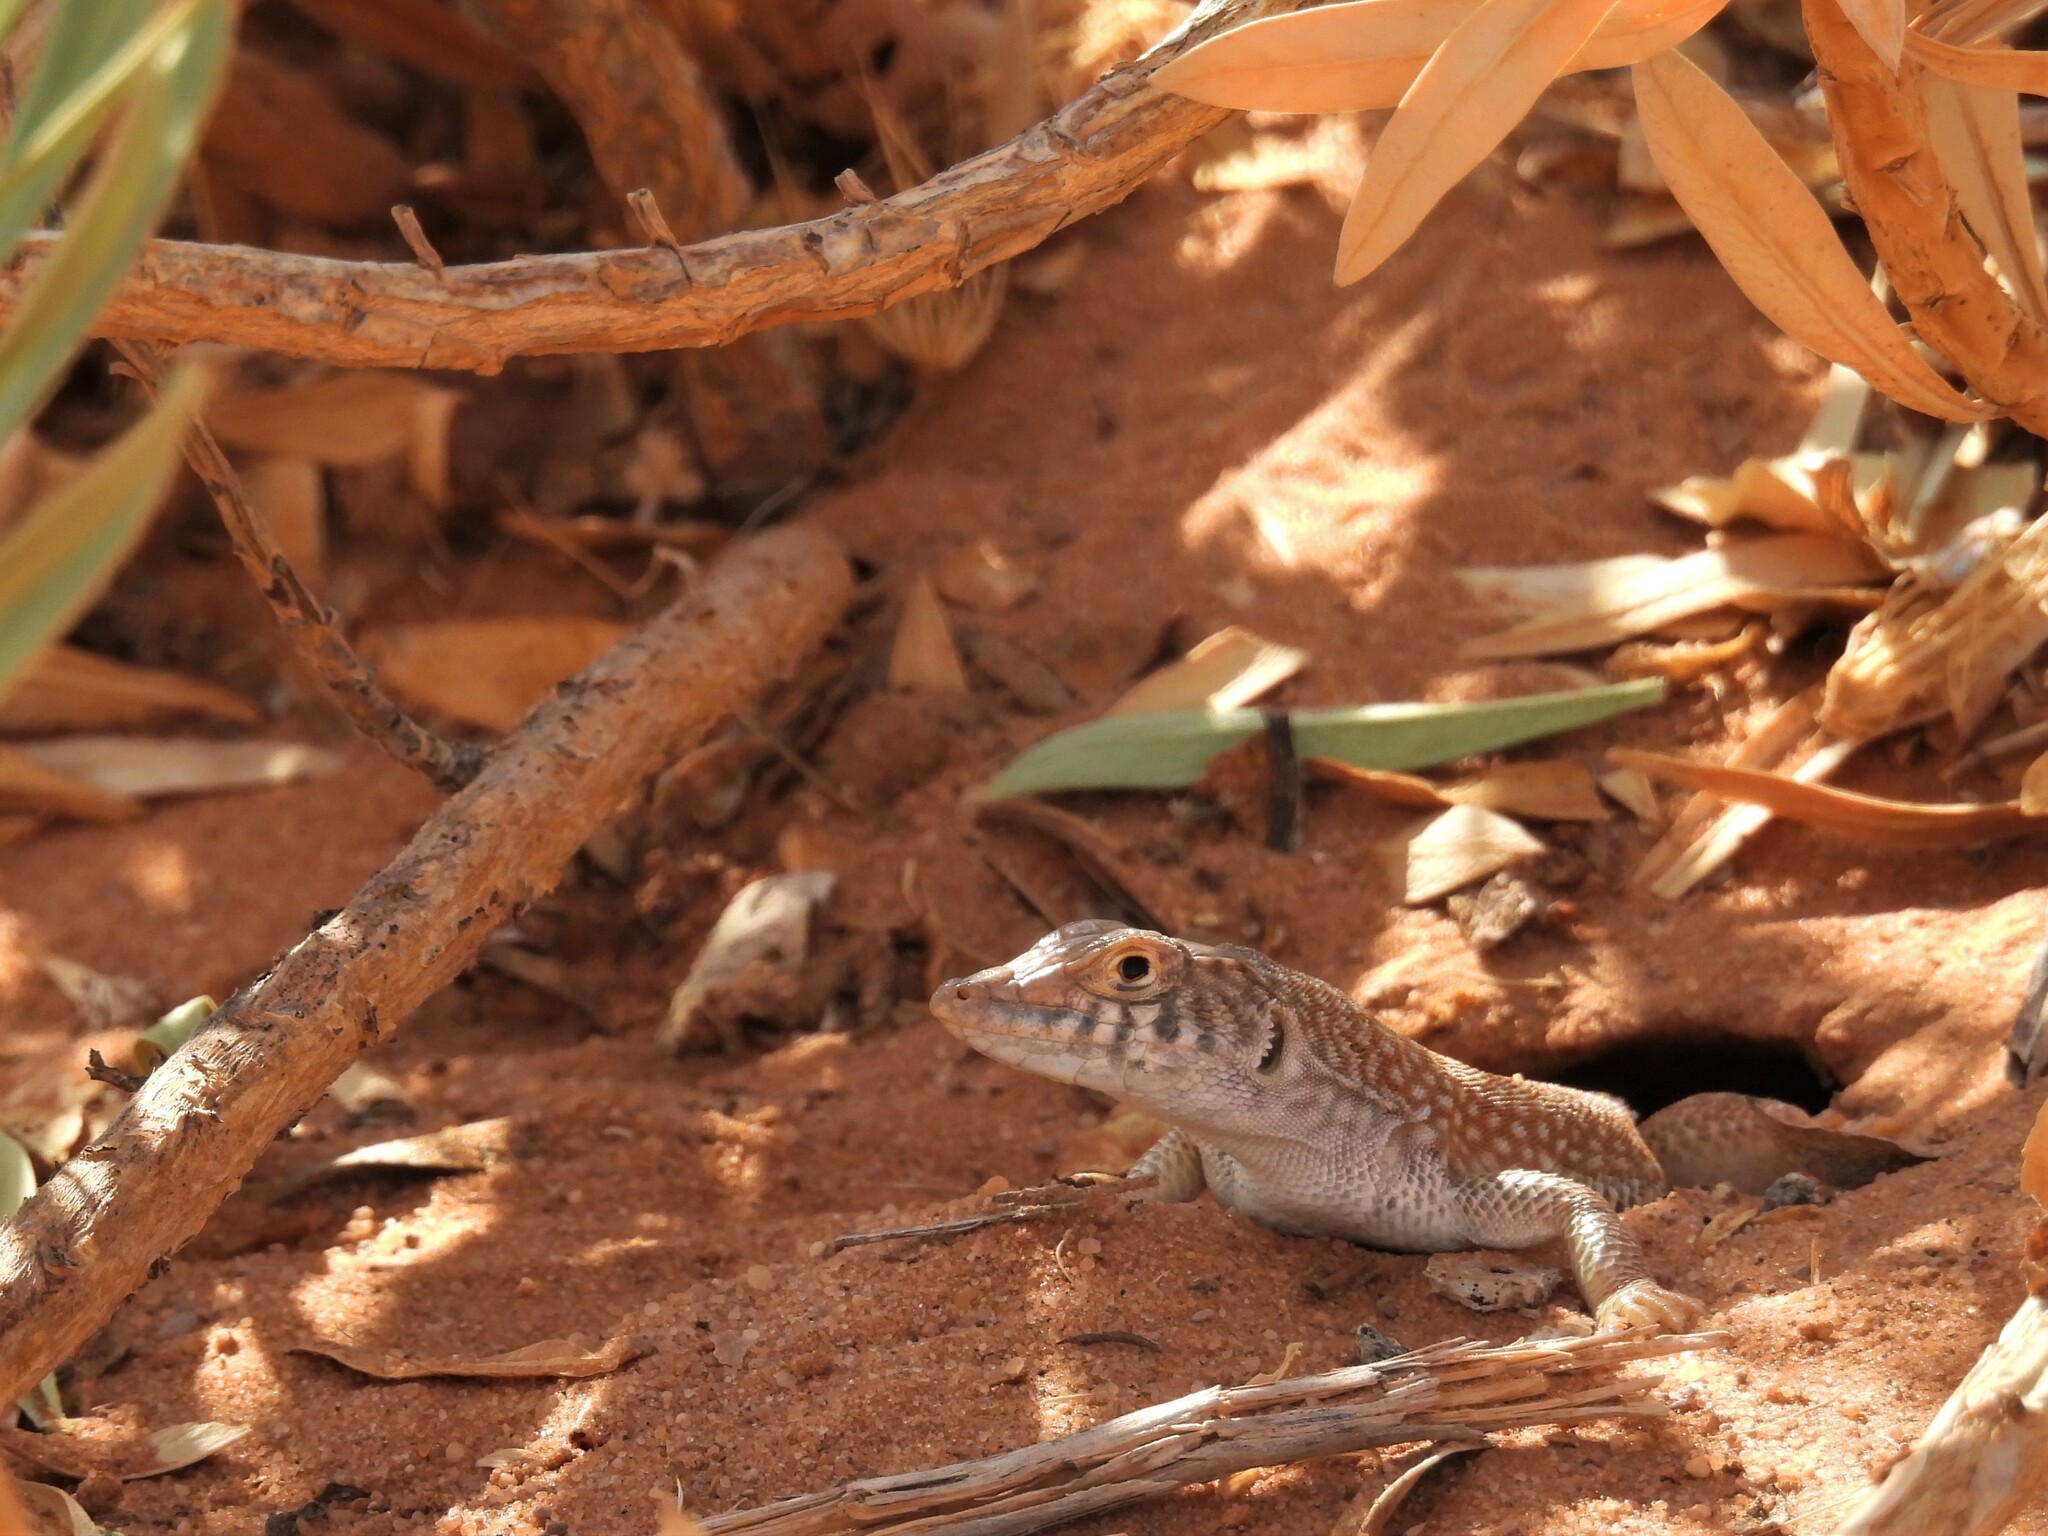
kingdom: Animalia
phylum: Chordata
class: Squamata
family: Lacertidae
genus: Acanthodactylus
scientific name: Acanthodactylus schmidti
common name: Schmidt's fringe-toed lizard
